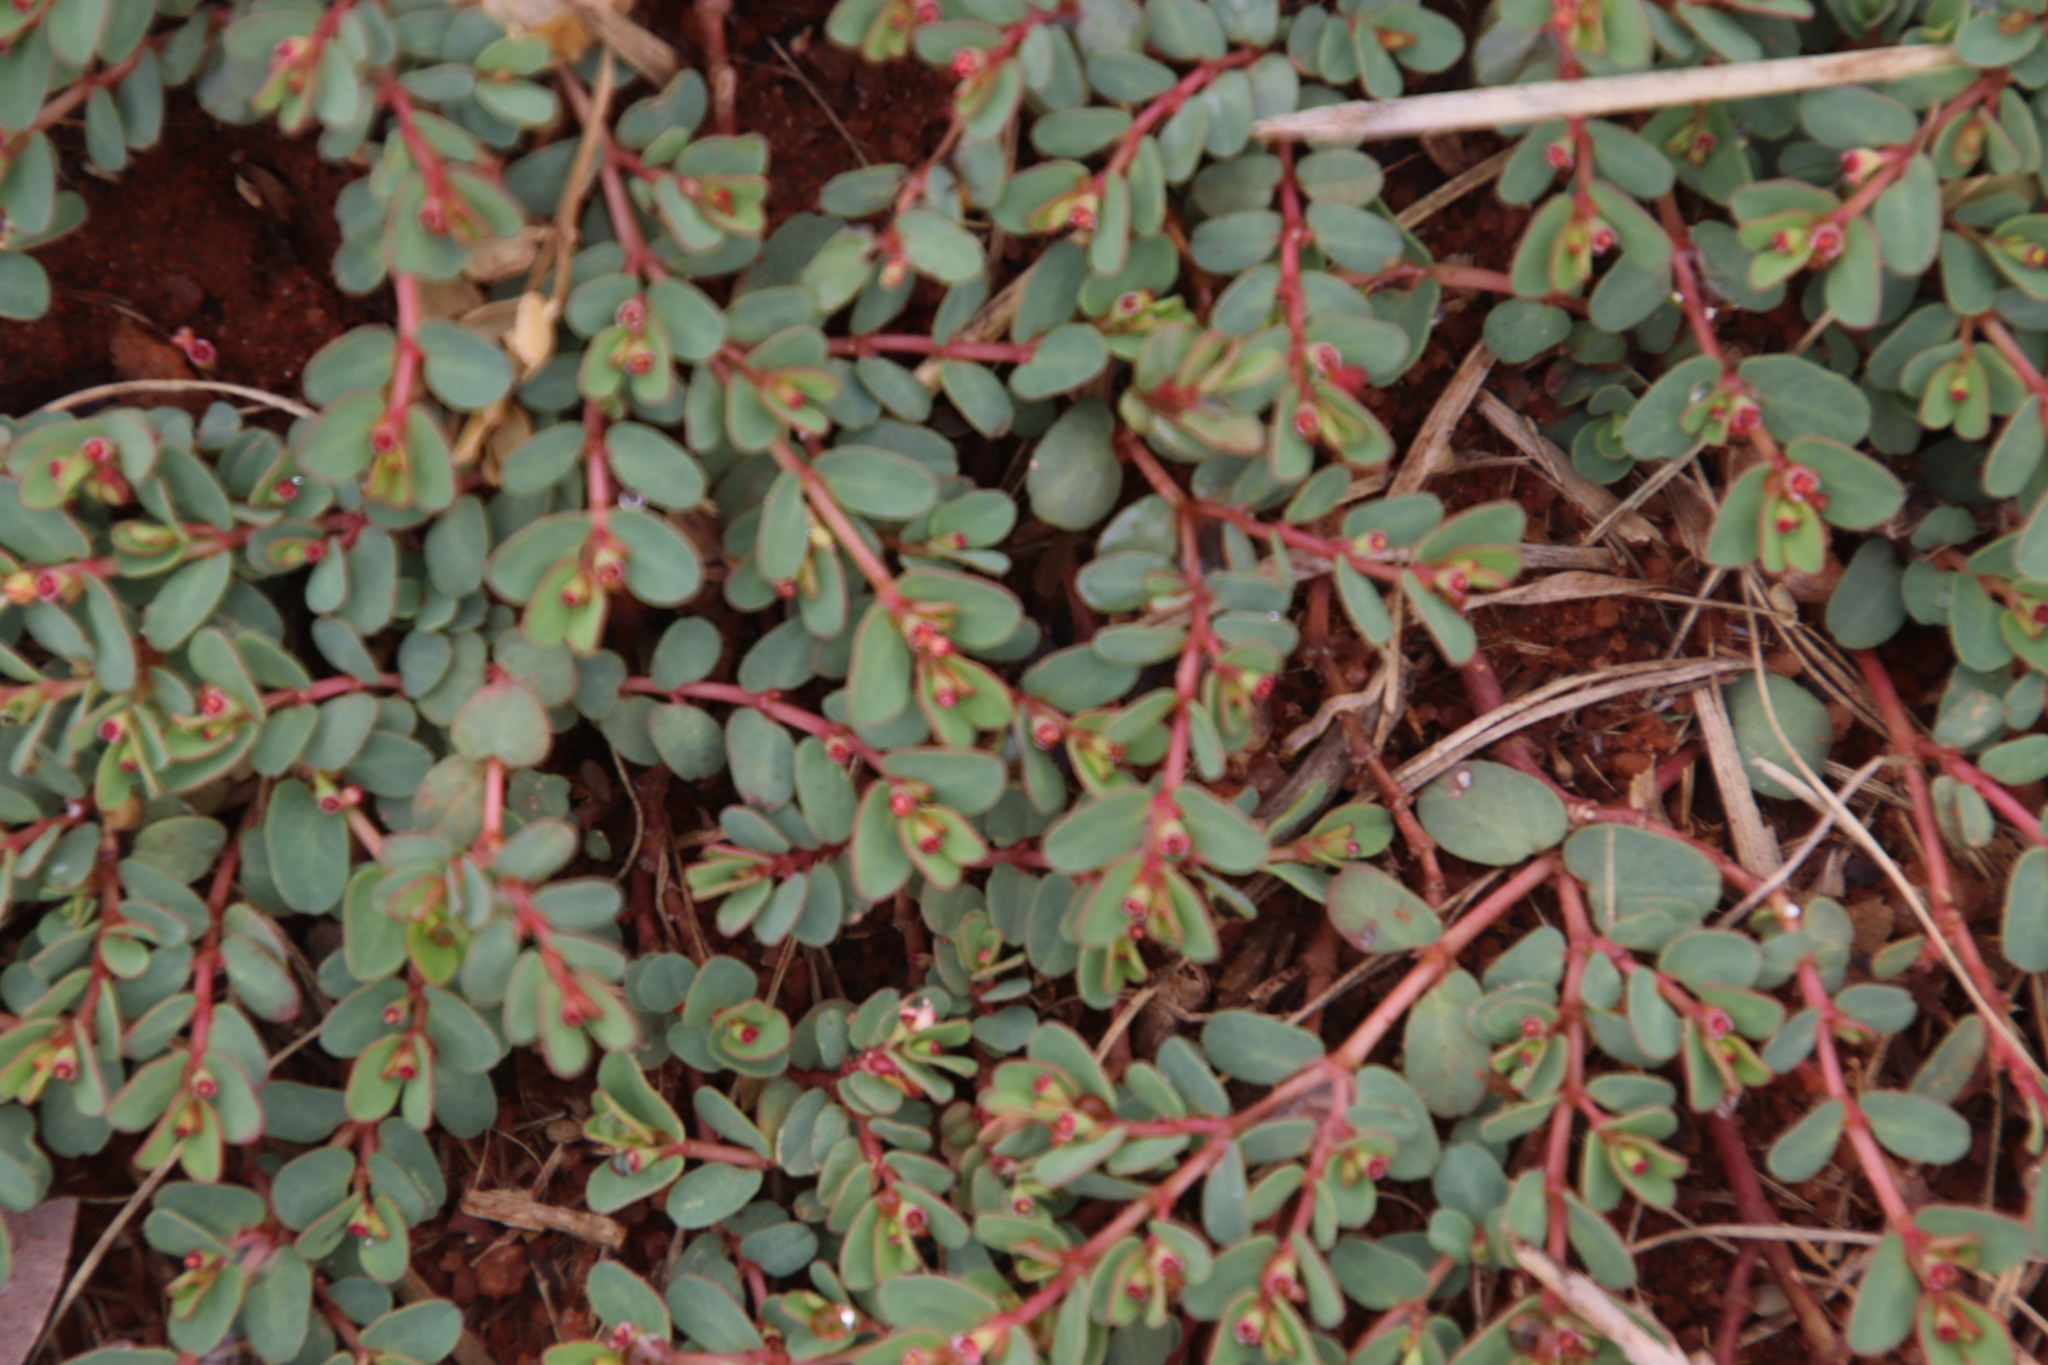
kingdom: Plantae
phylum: Tracheophyta
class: Magnoliopsida
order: Malpighiales
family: Euphorbiaceae
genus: Euphorbia
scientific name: Euphorbia inaequilatera
